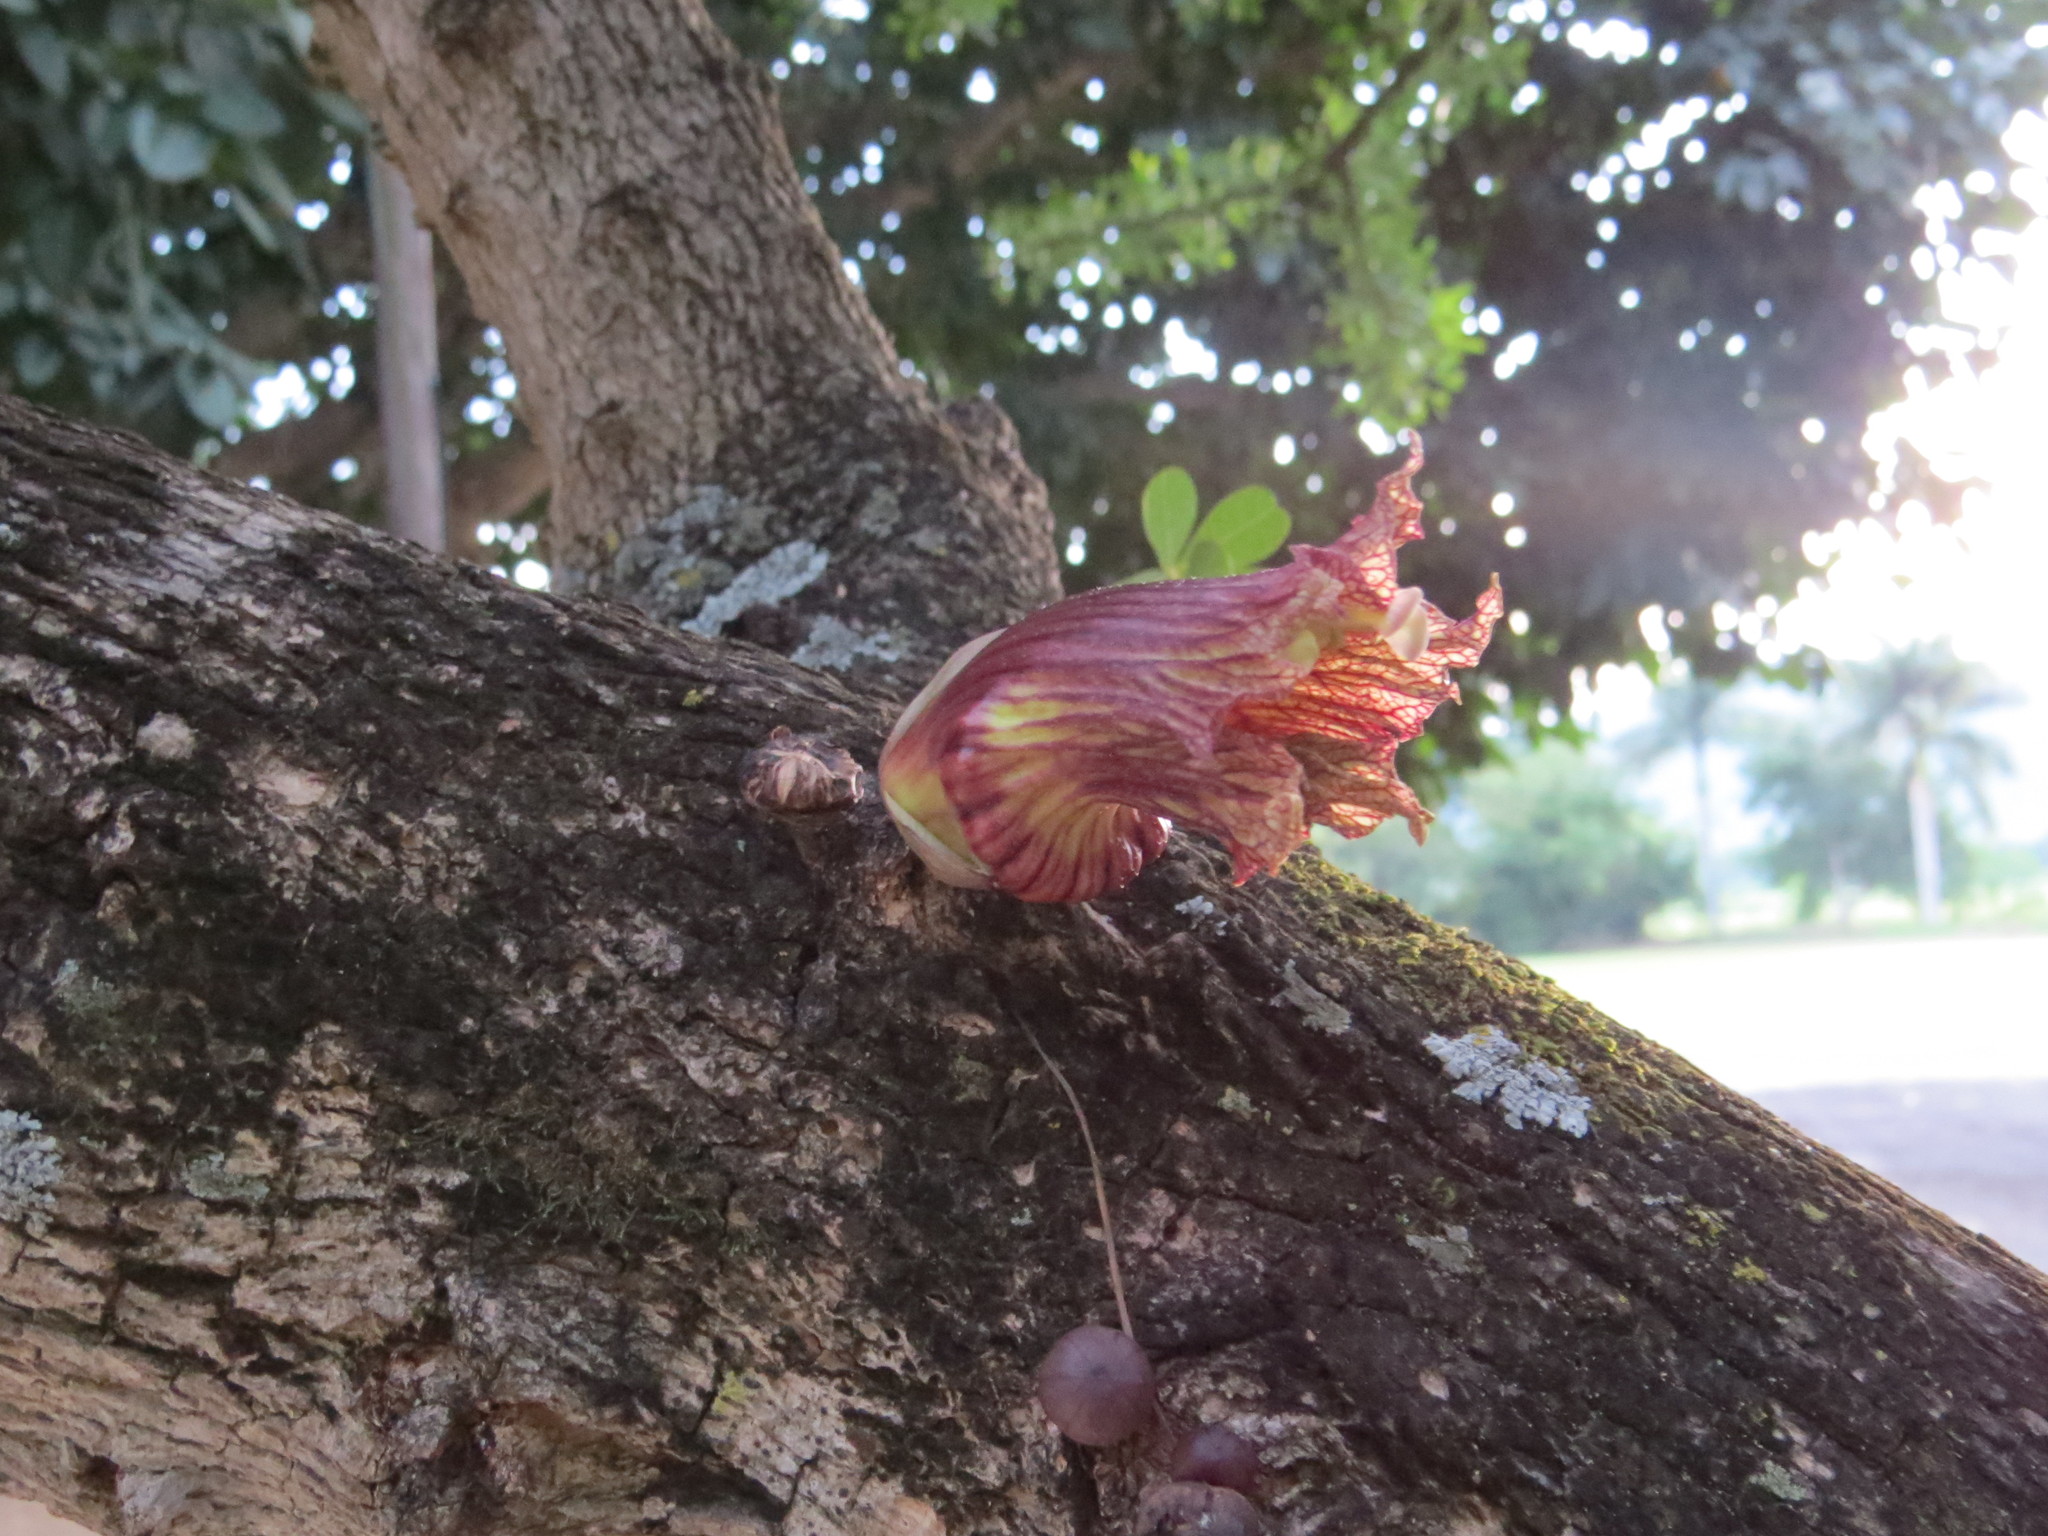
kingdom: Plantae
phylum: Tracheophyta
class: Magnoliopsida
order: Lamiales
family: Bignoniaceae
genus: Crescentia
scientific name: Crescentia alata
